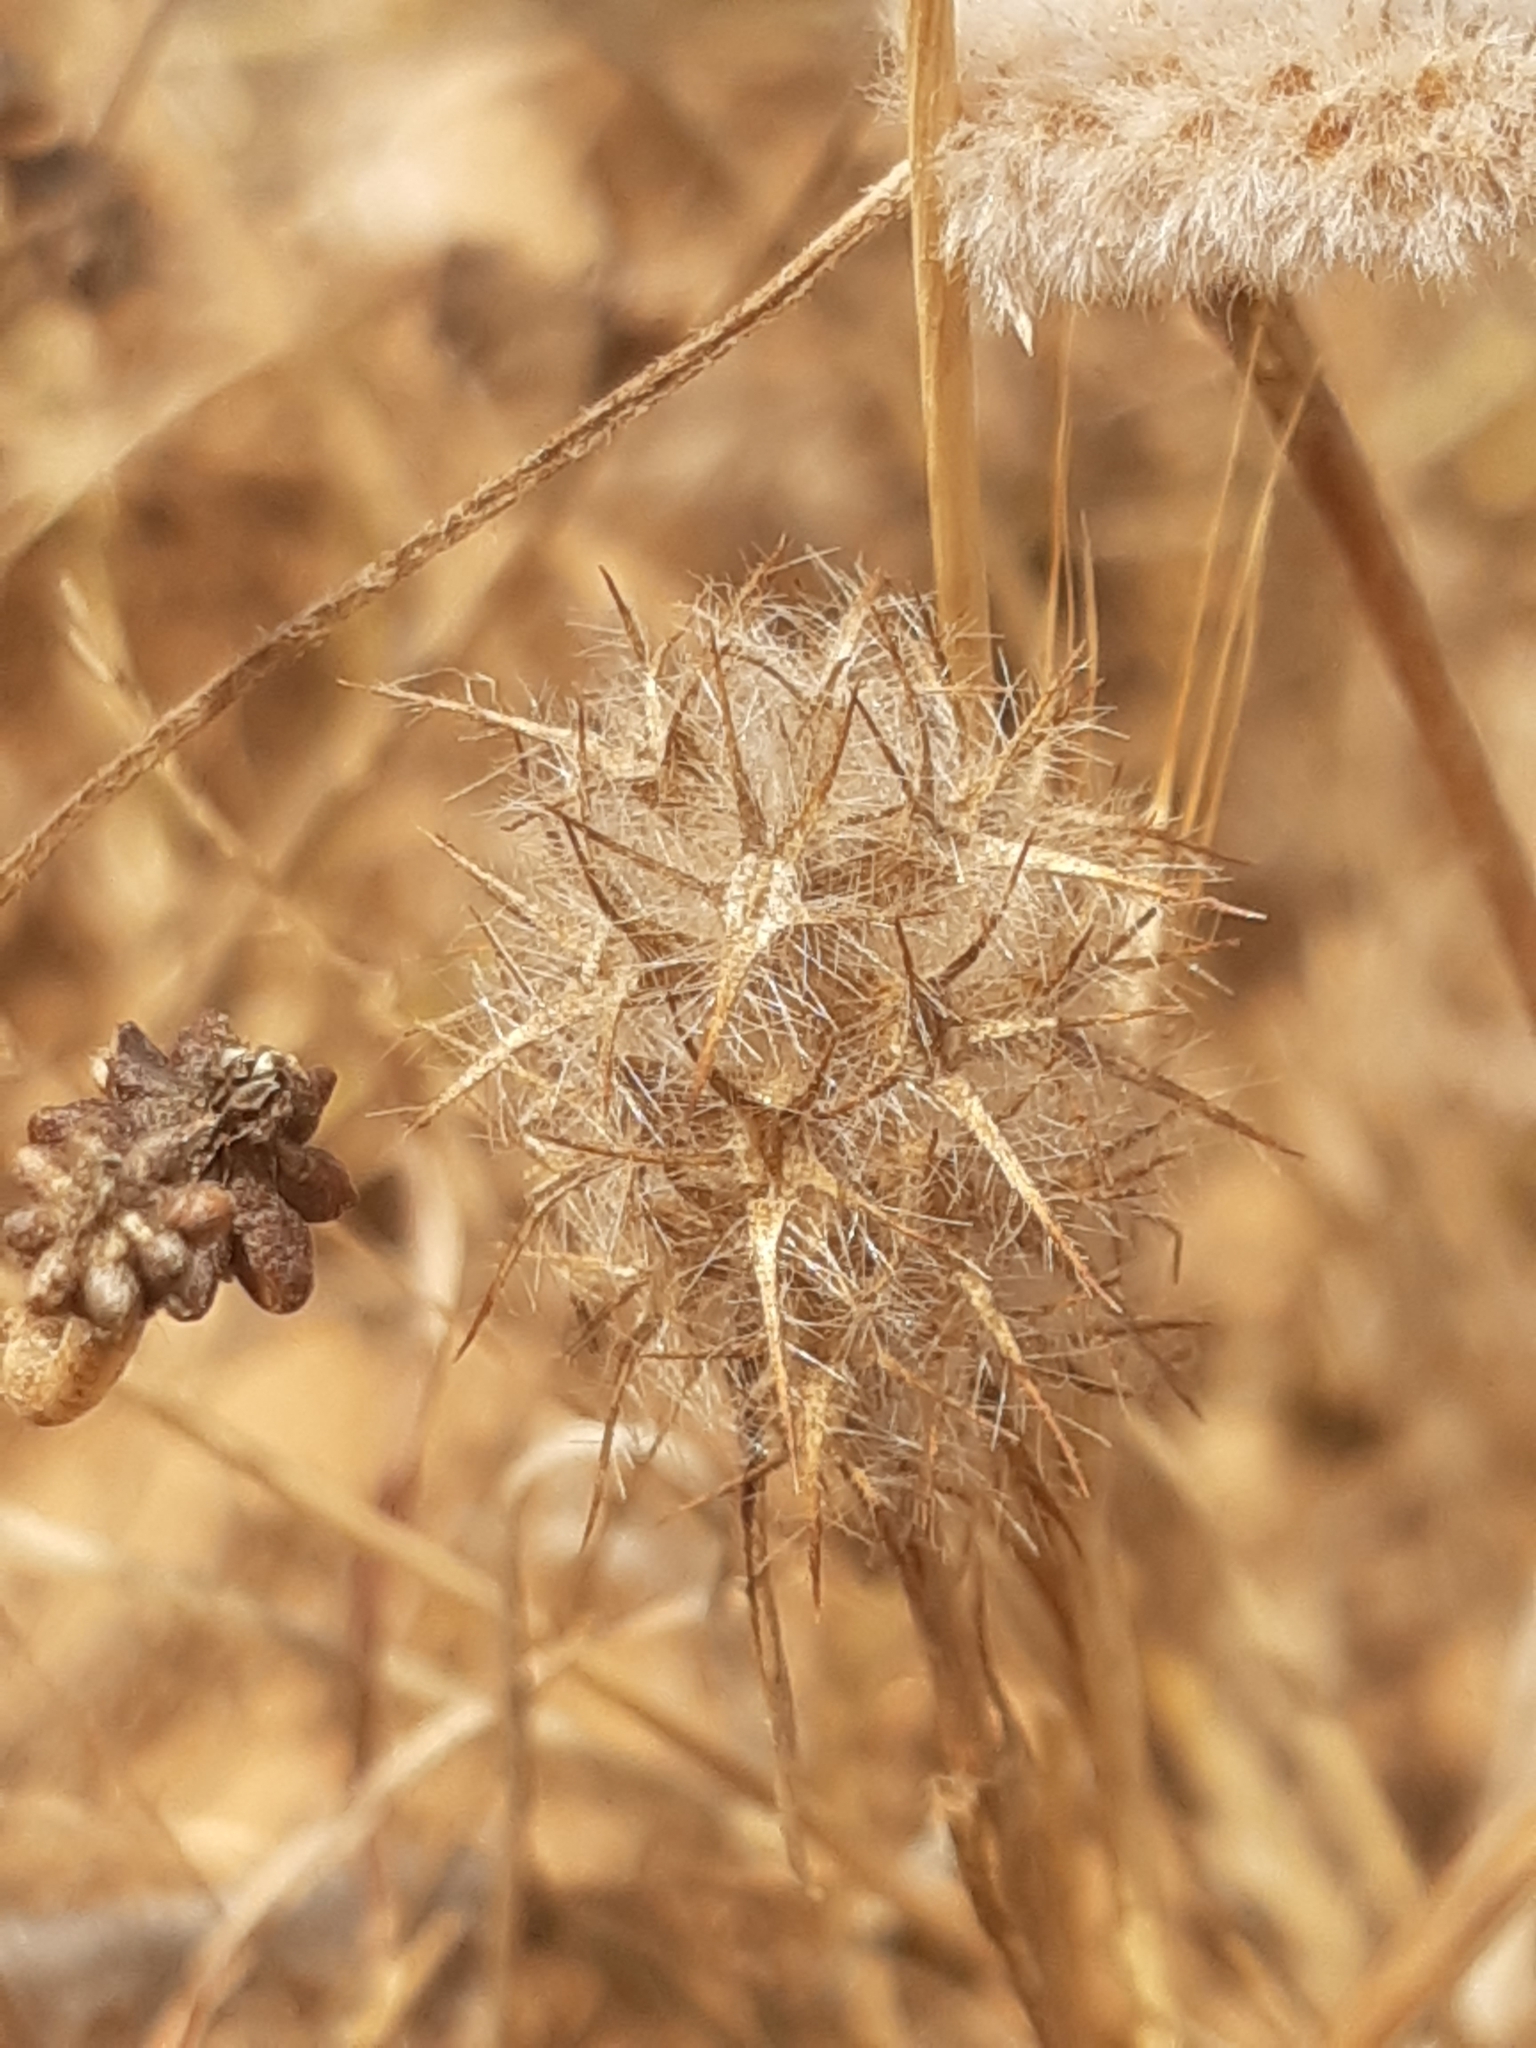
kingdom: Plantae
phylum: Tracheophyta
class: Magnoliopsida
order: Fabales
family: Fabaceae
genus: Trifolium
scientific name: Trifolium angustifolium
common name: Narrow clover
